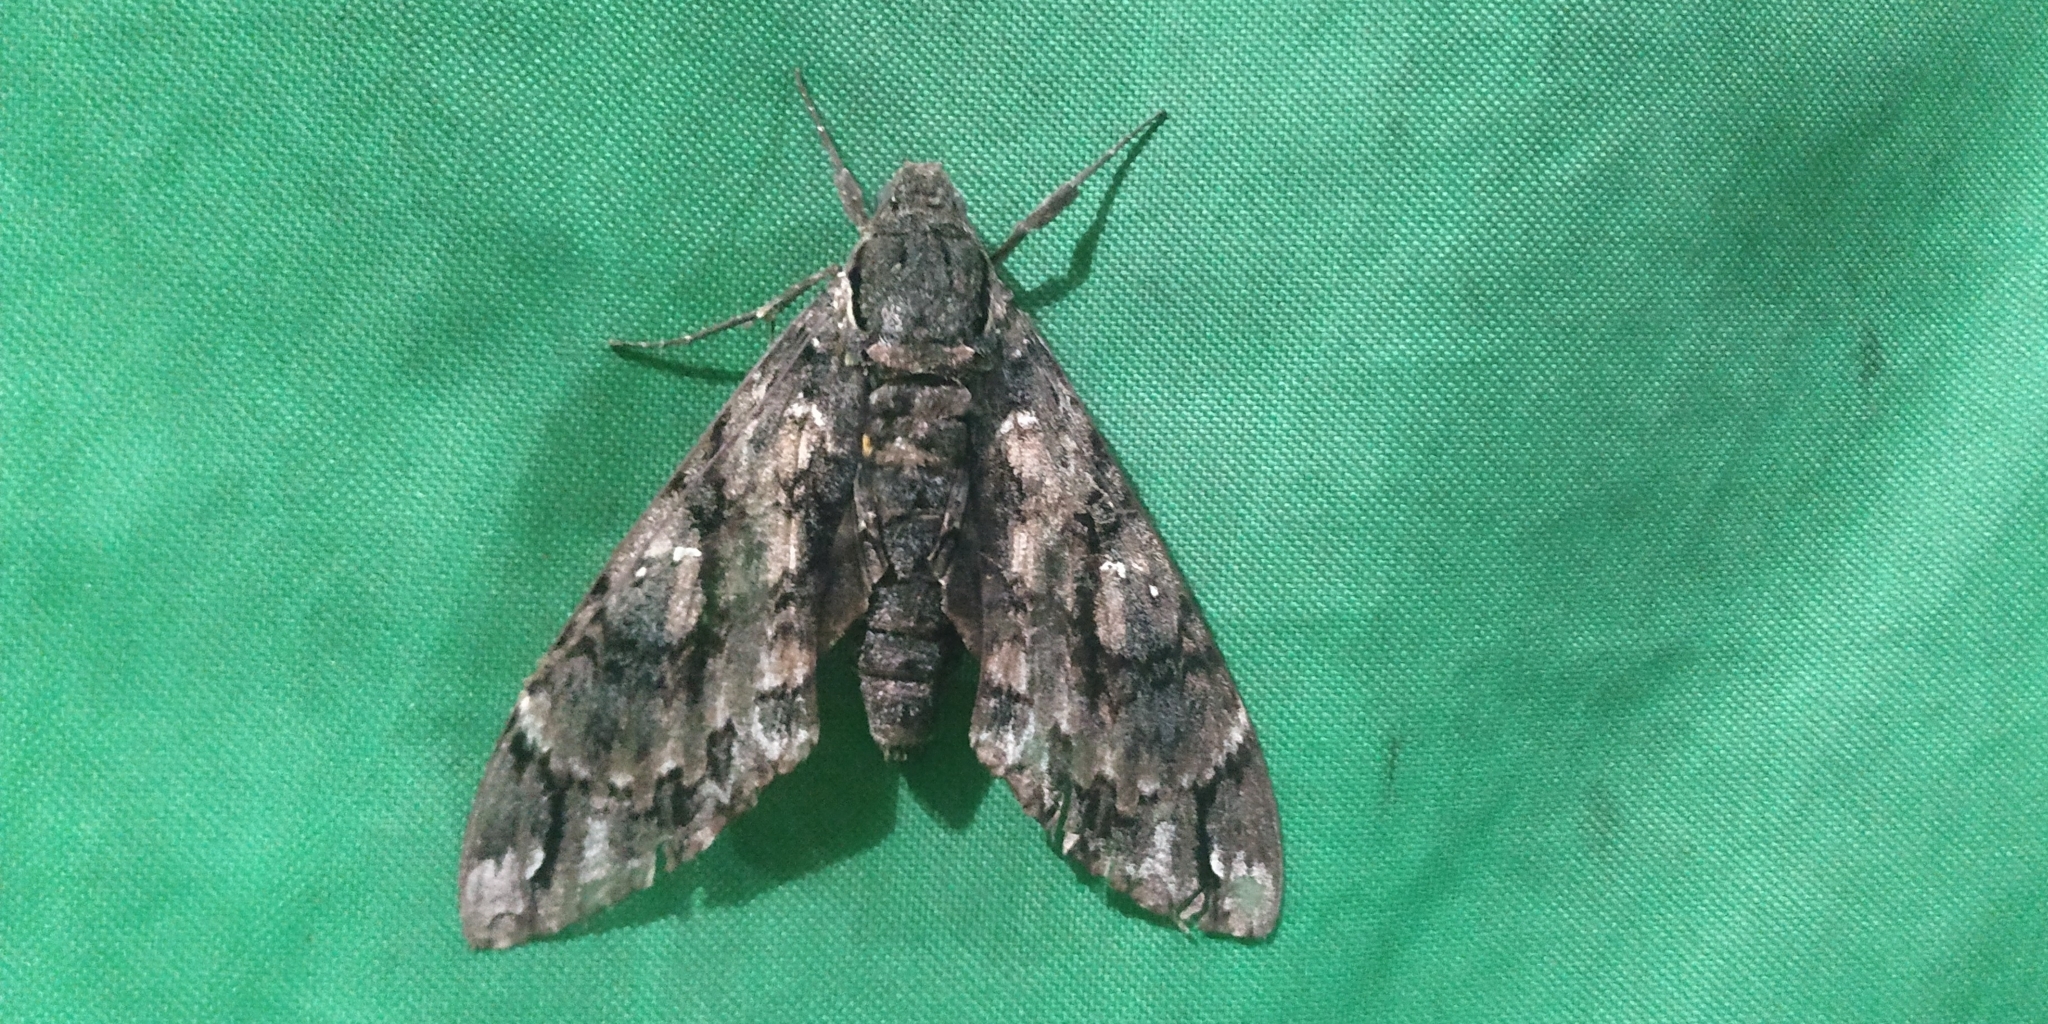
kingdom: Animalia
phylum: Arthropoda
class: Insecta
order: Lepidoptera
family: Sphingidae
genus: Cocytius
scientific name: Cocytius antaeus
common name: Giant sphinx
